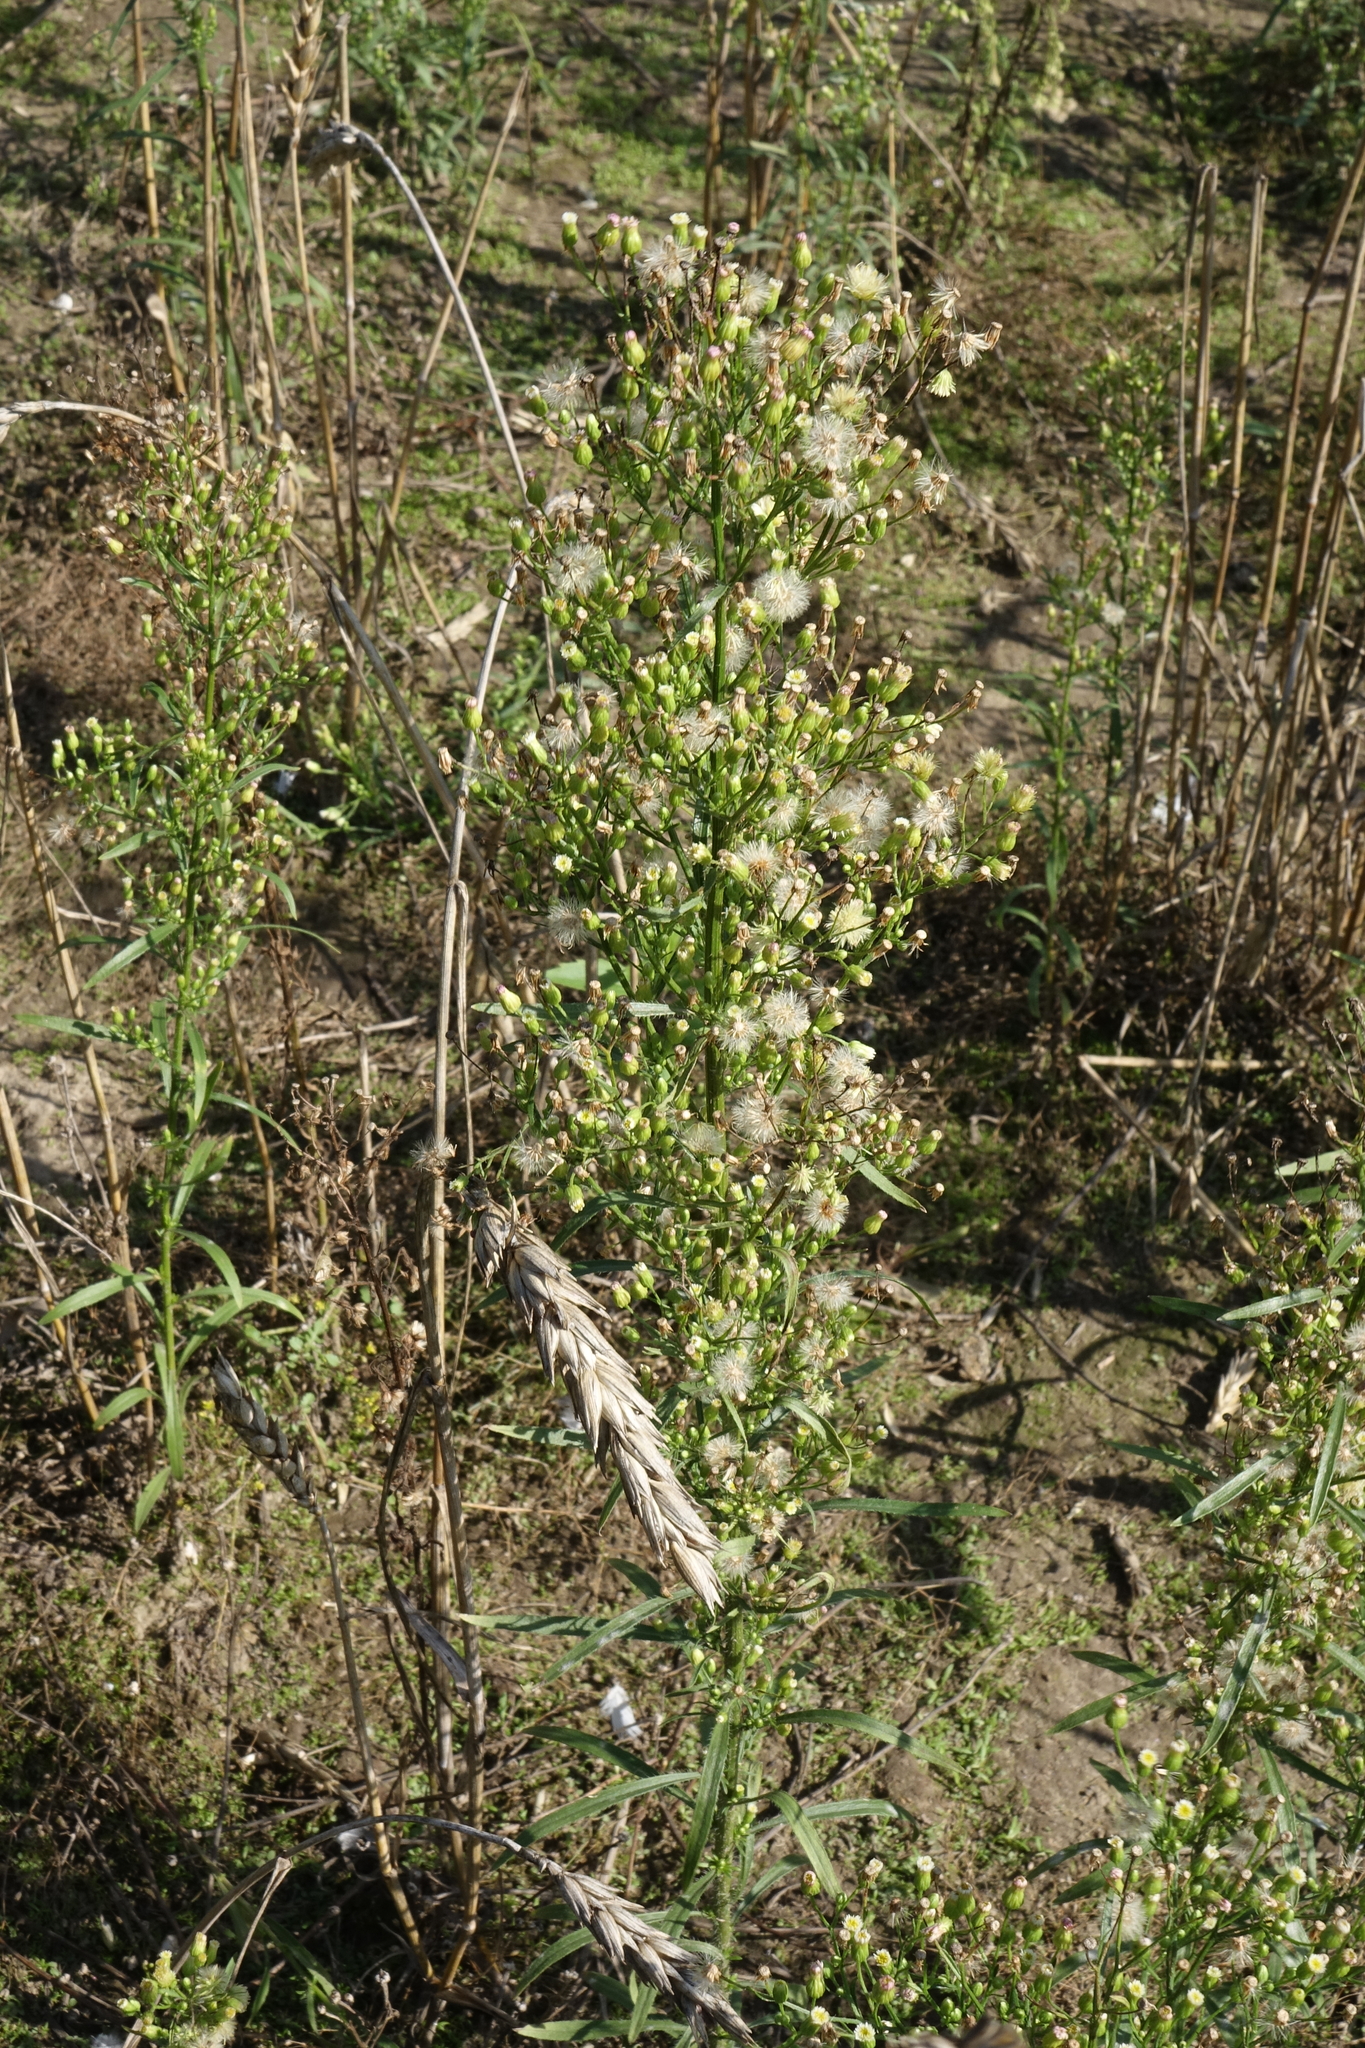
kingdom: Plantae
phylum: Tracheophyta
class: Magnoliopsida
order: Asterales
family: Asteraceae
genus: Erigeron
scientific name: Erigeron canadensis
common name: Canadian fleabane
